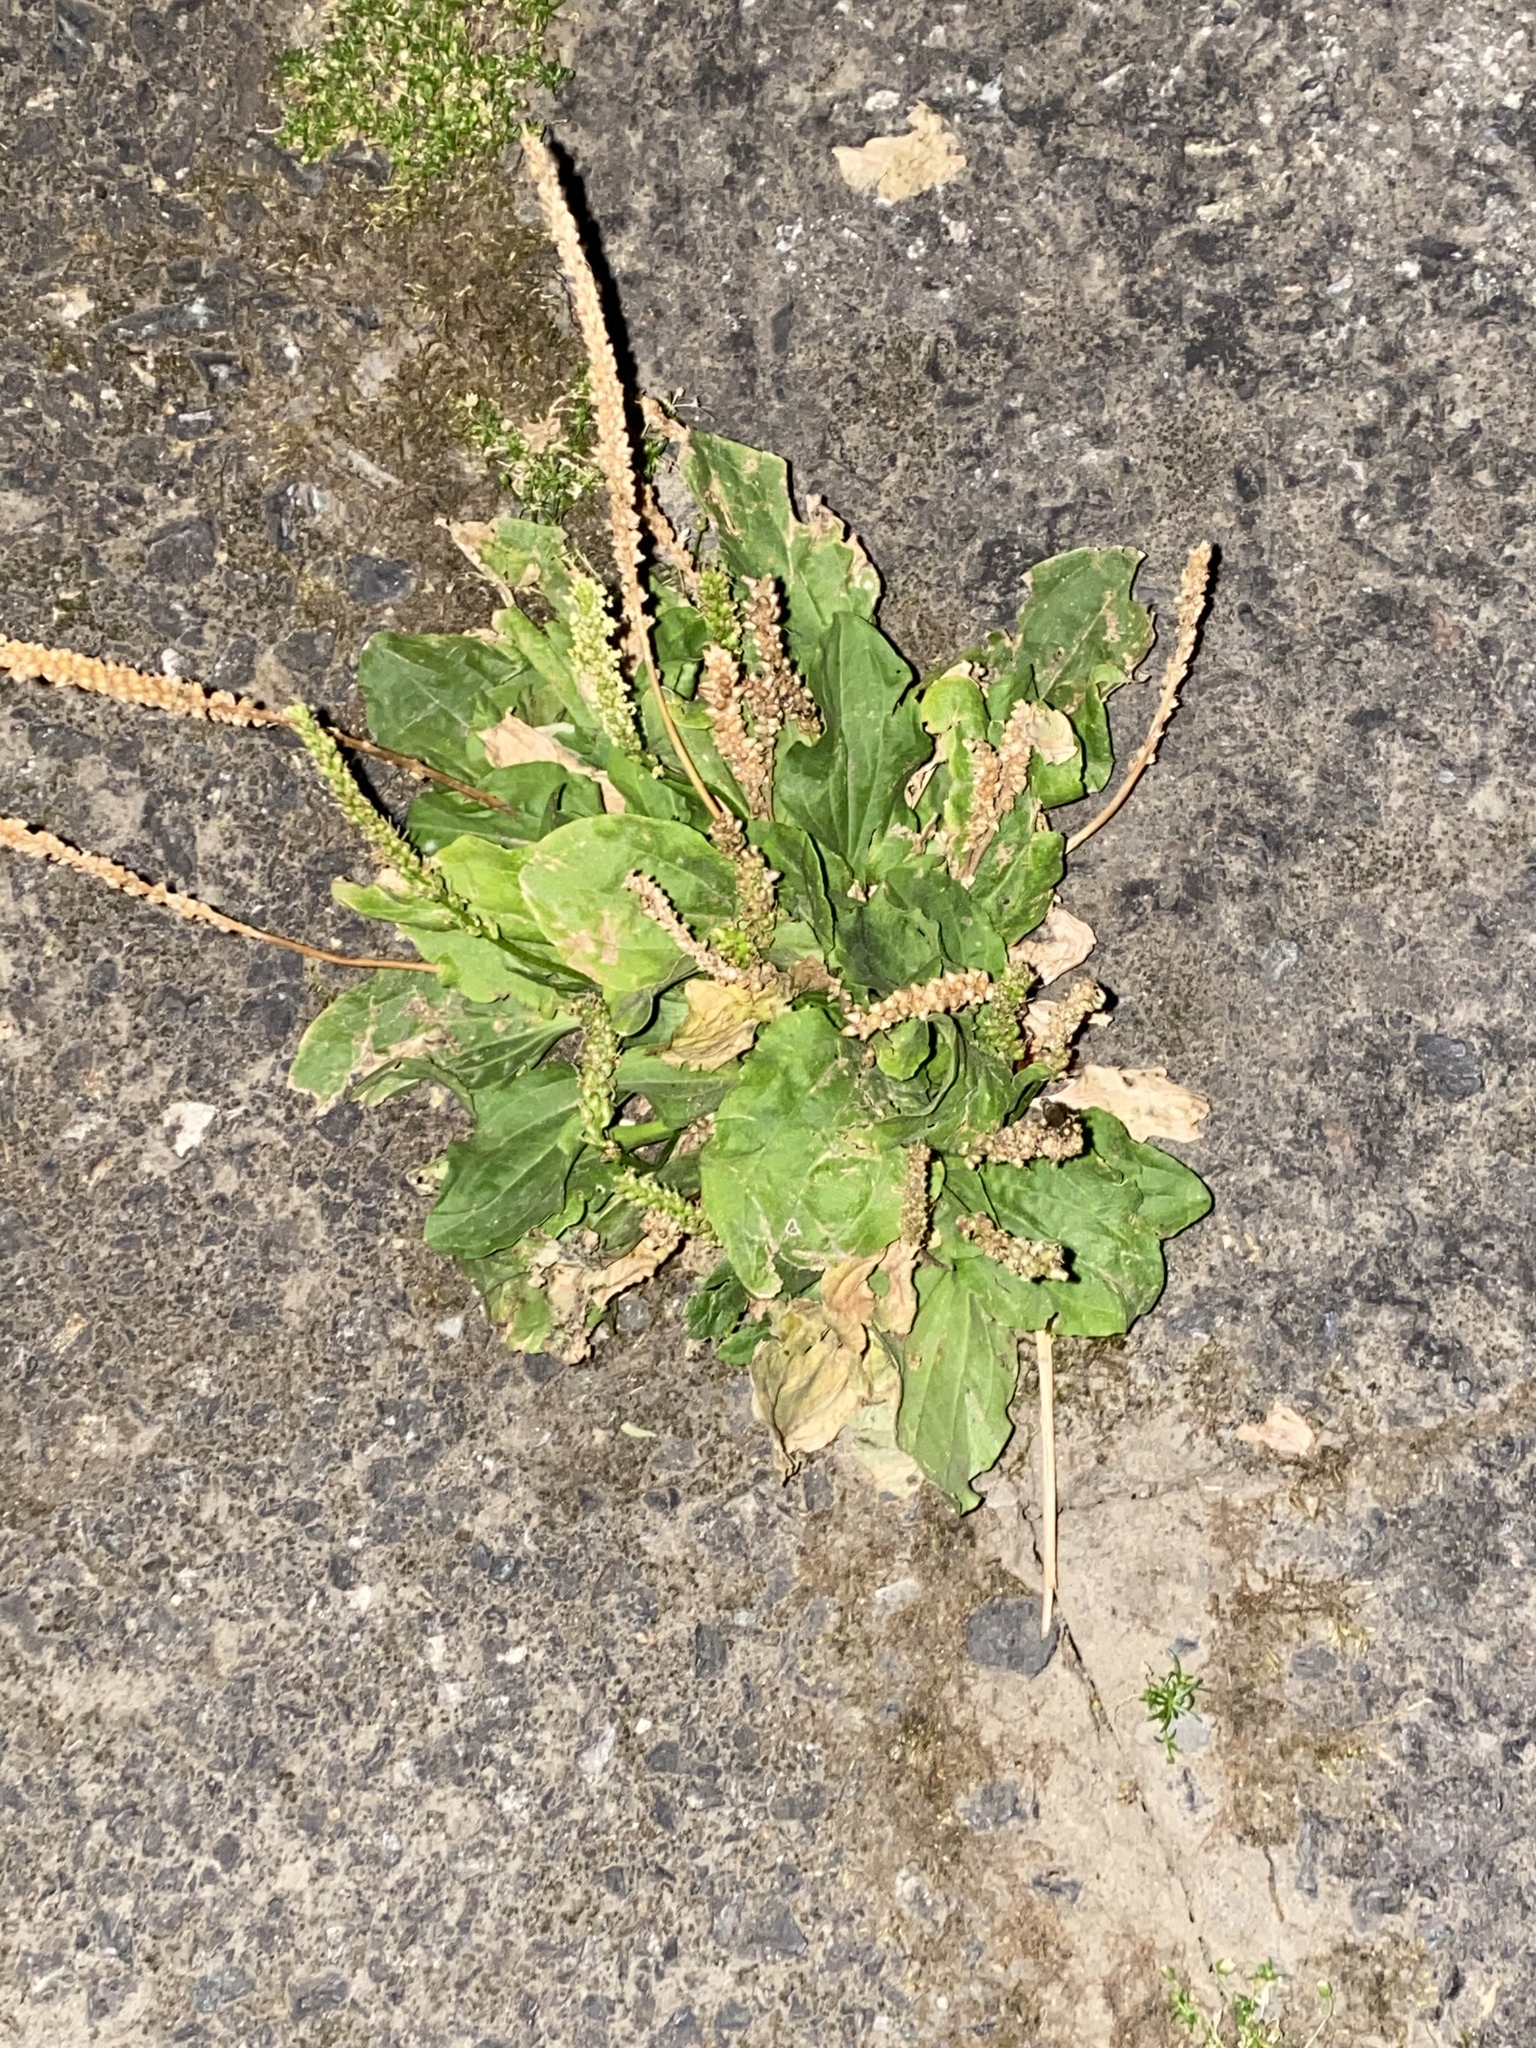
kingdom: Plantae
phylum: Tracheophyta
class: Magnoliopsida
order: Lamiales
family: Plantaginaceae
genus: Plantago
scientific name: Plantago major
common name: Common plantain
